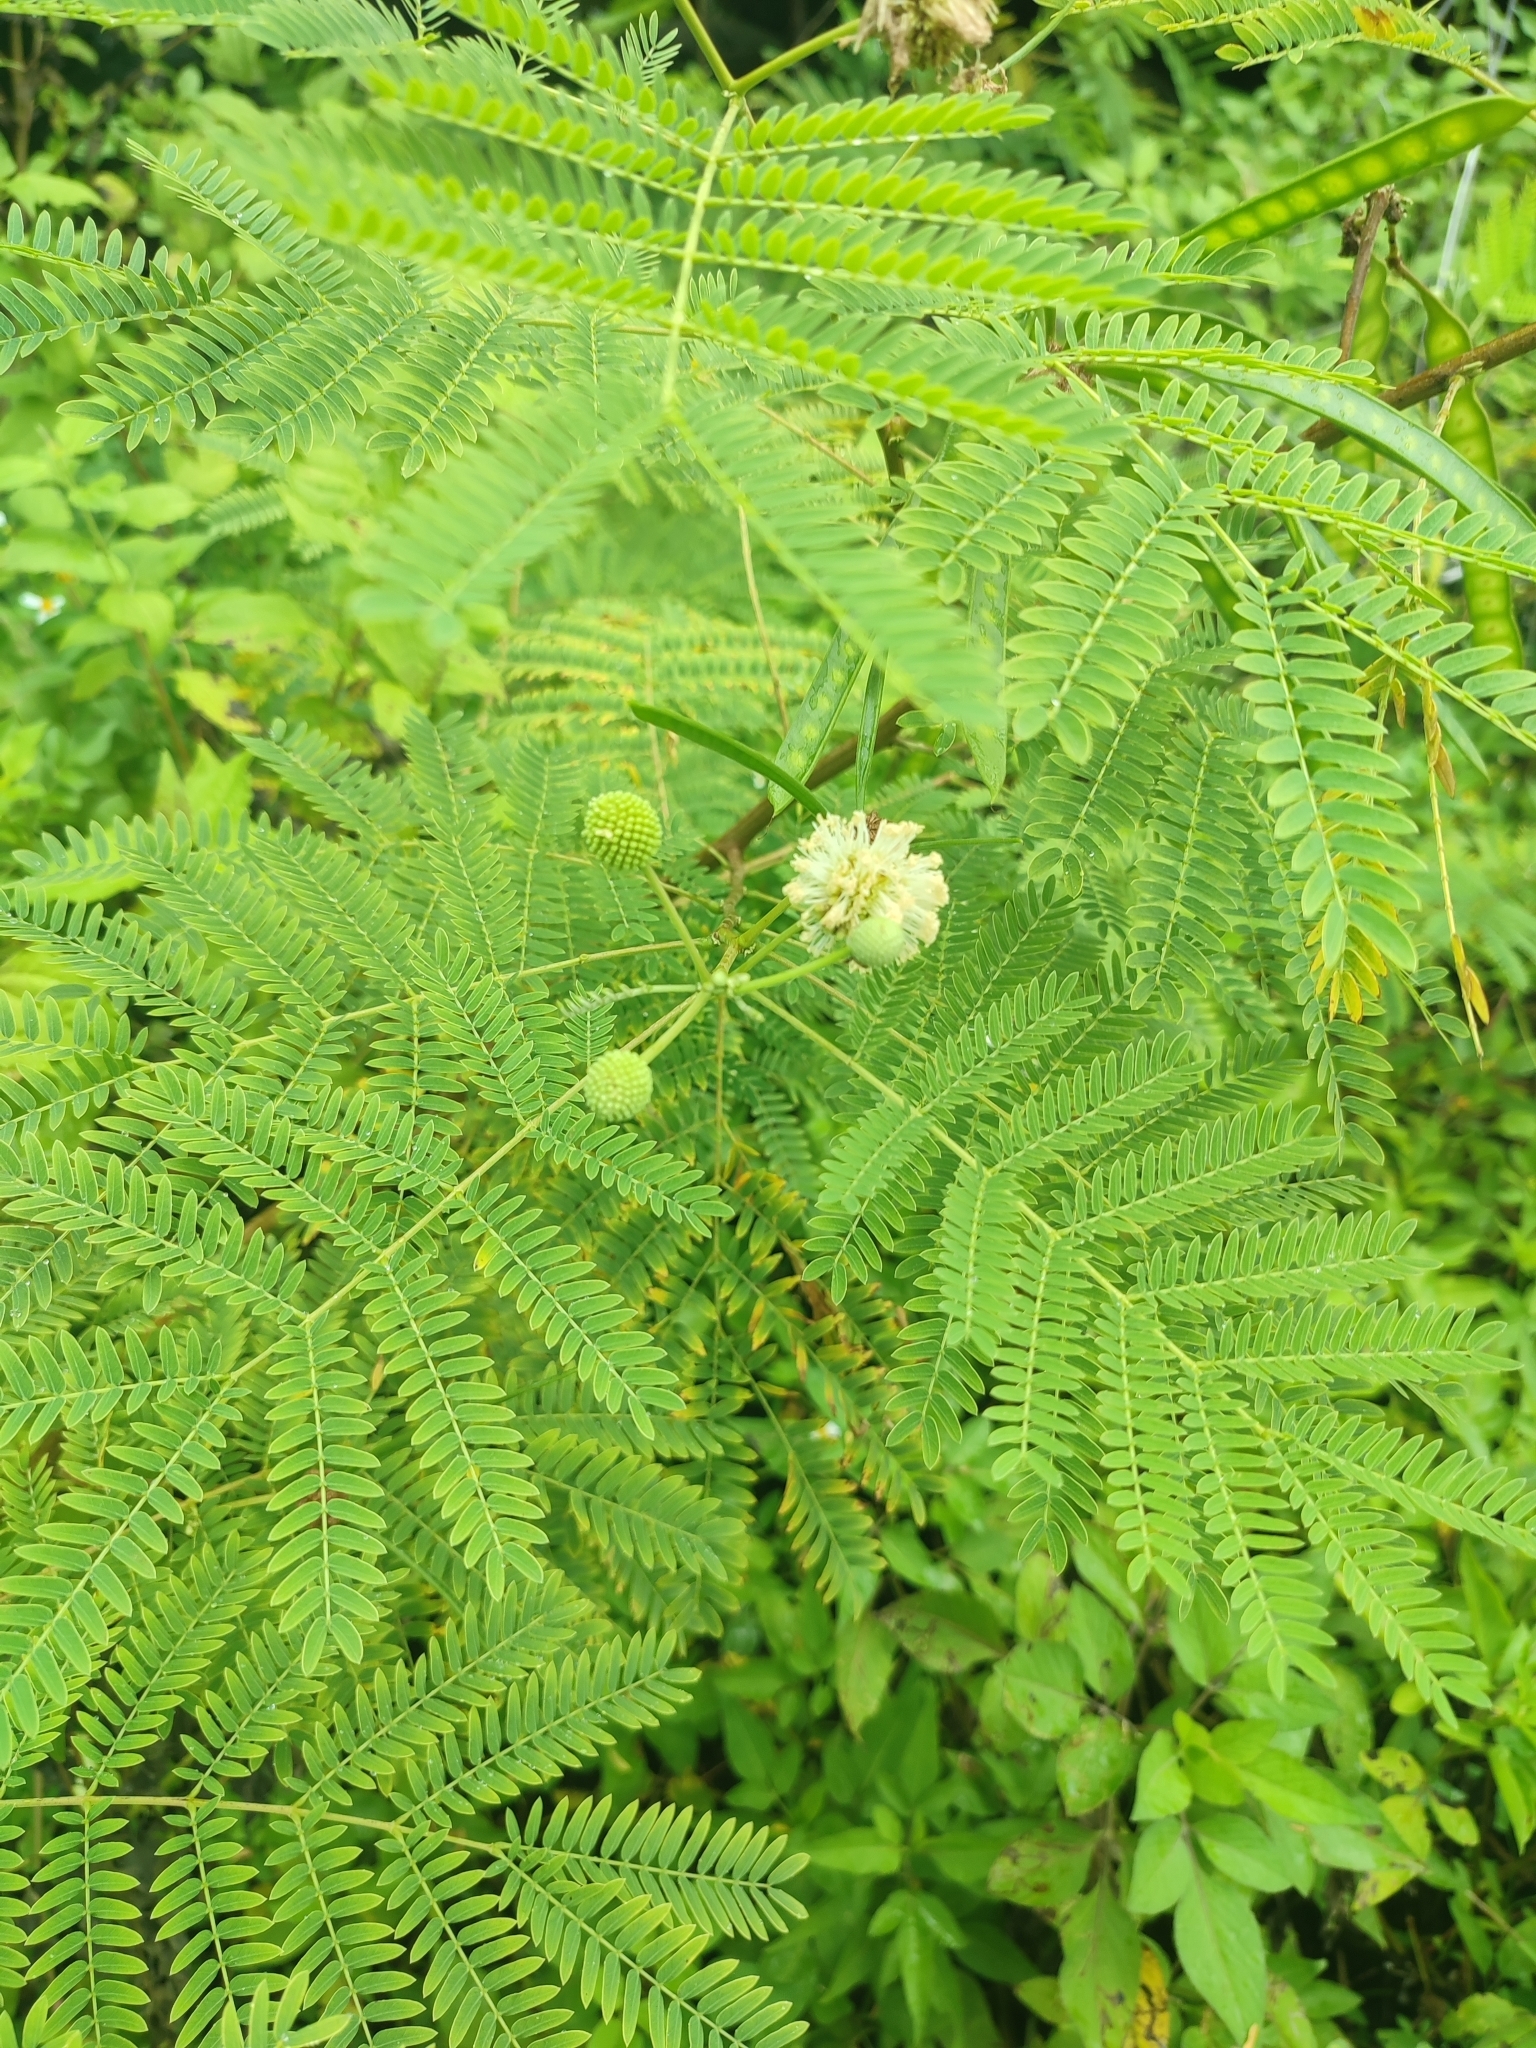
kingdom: Plantae
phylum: Tracheophyta
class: Magnoliopsida
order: Fabales
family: Fabaceae
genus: Leucaena
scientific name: Leucaena leucocephala
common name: White leadtree
